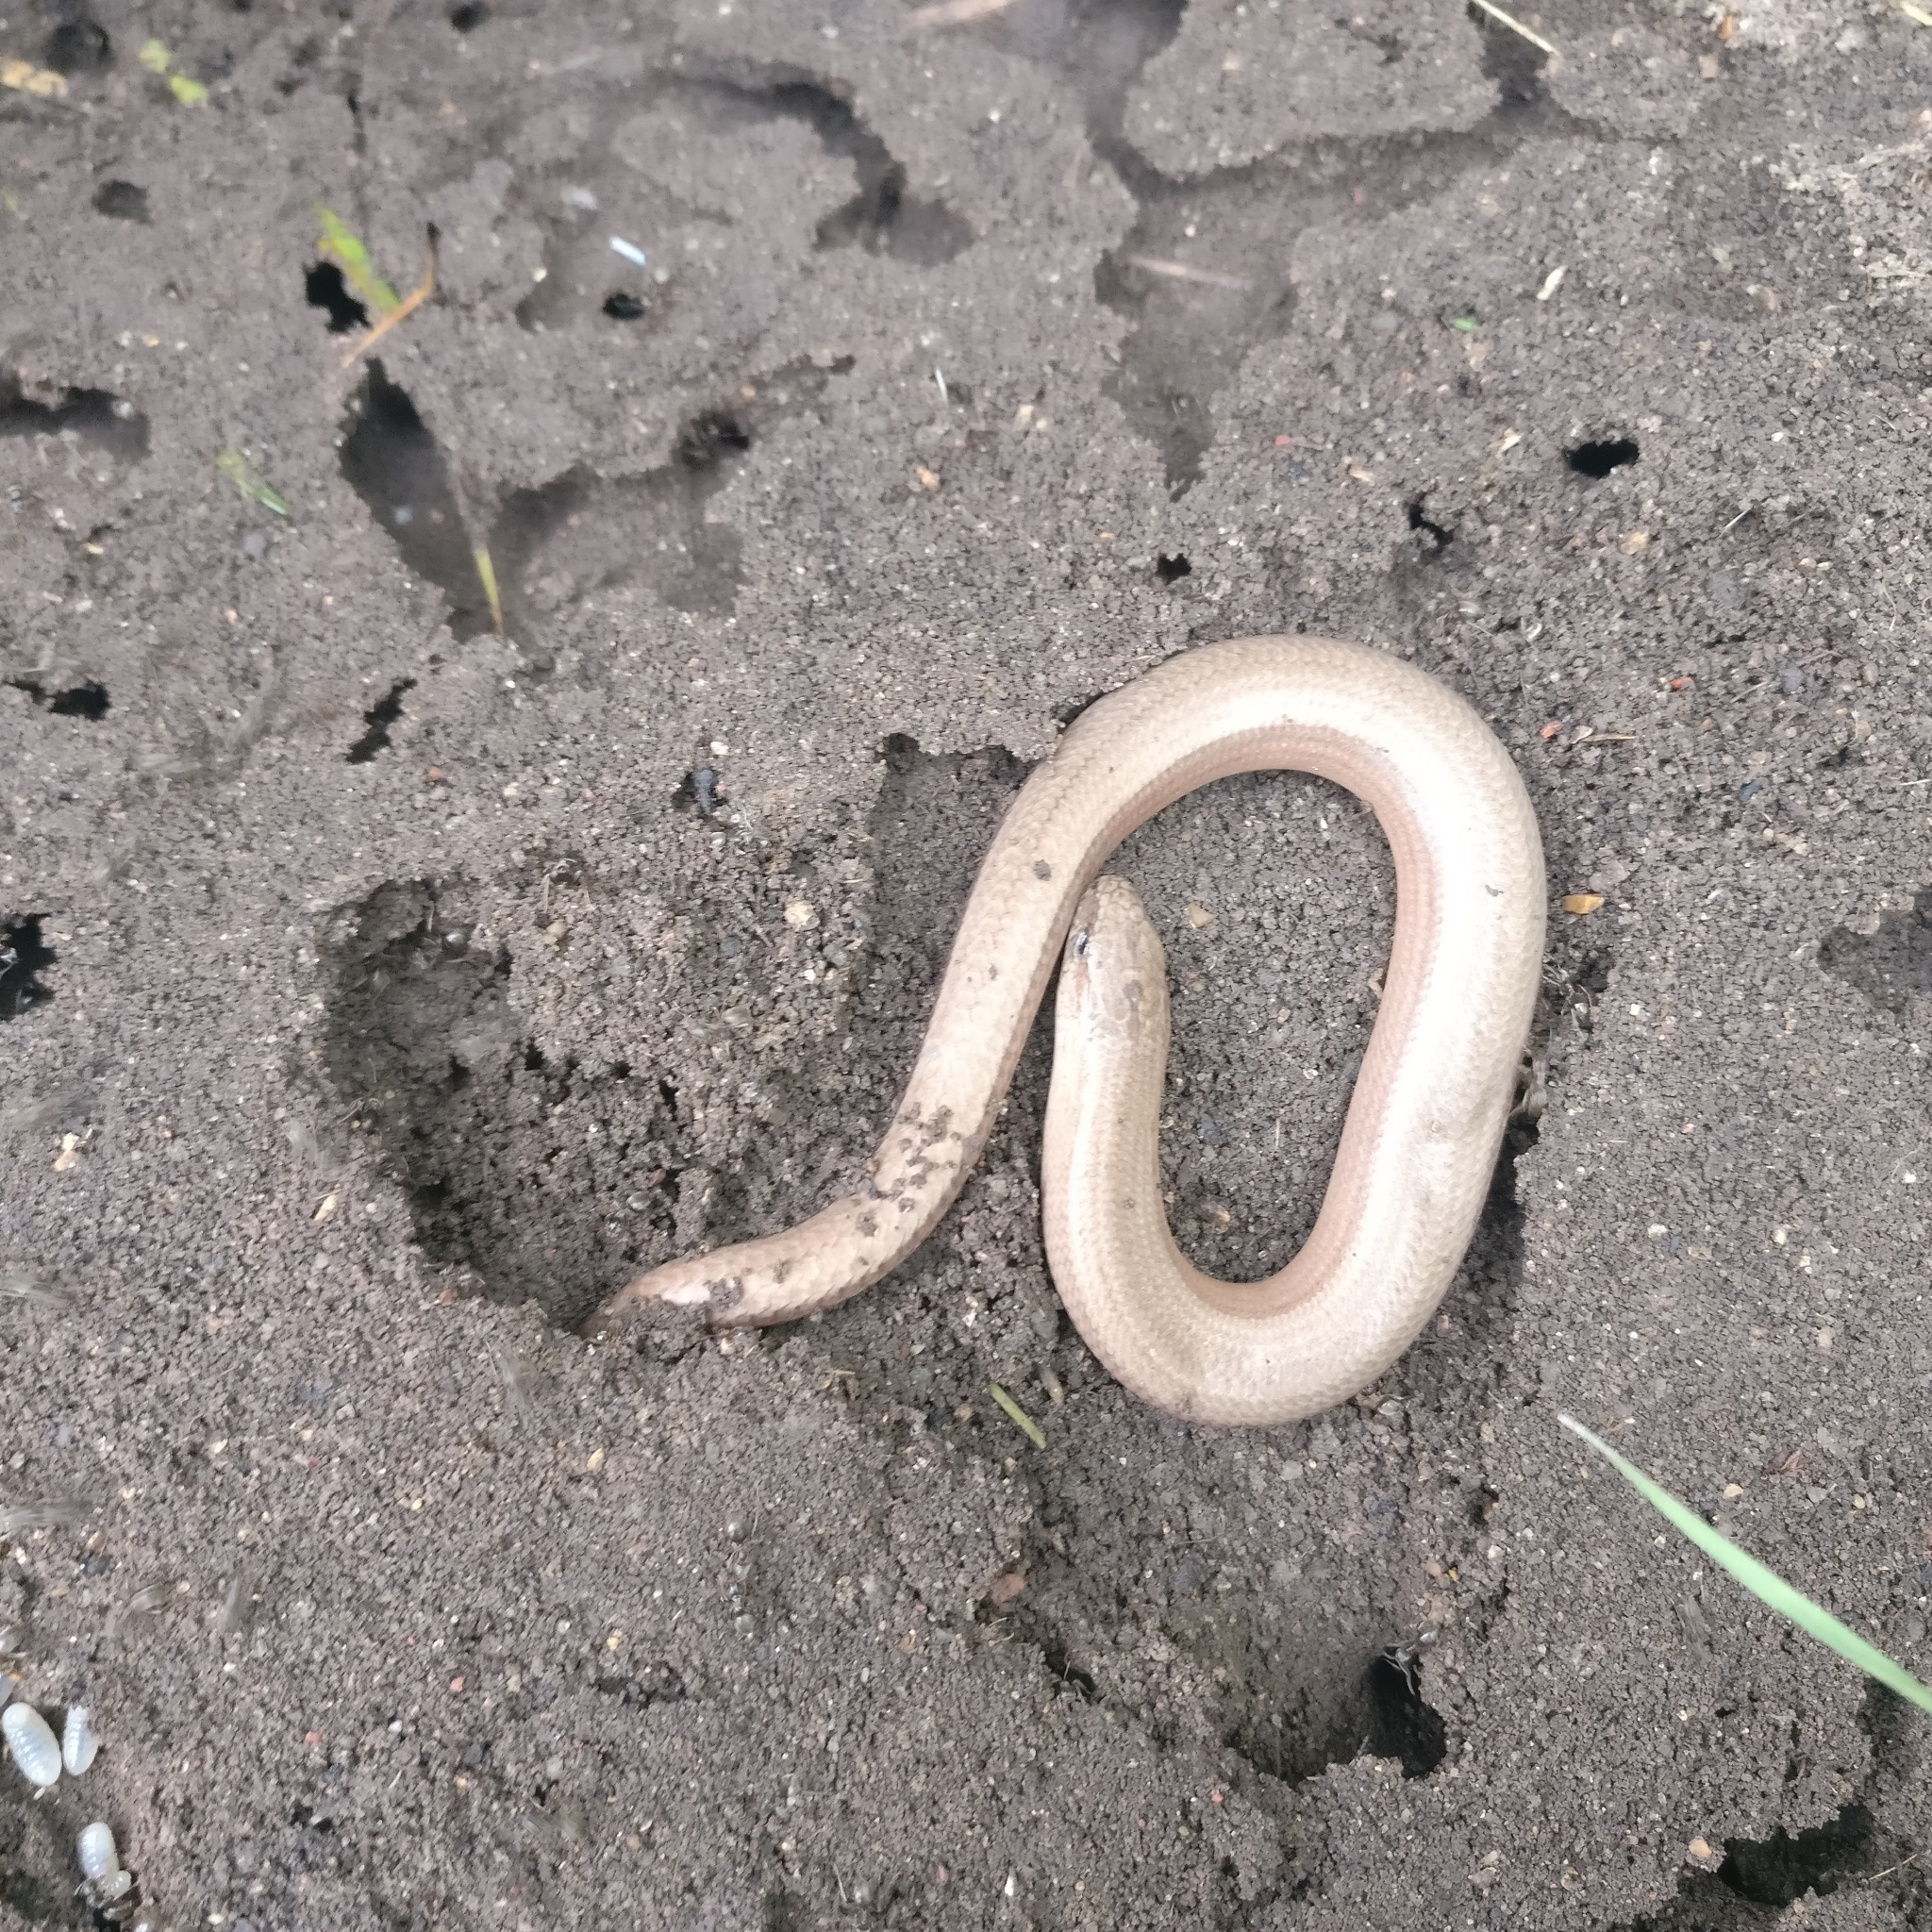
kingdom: Animalia
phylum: Chordata
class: Squamata
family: Anguidae
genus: Anguis
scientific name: Anguis fragilis
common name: Slow worm
